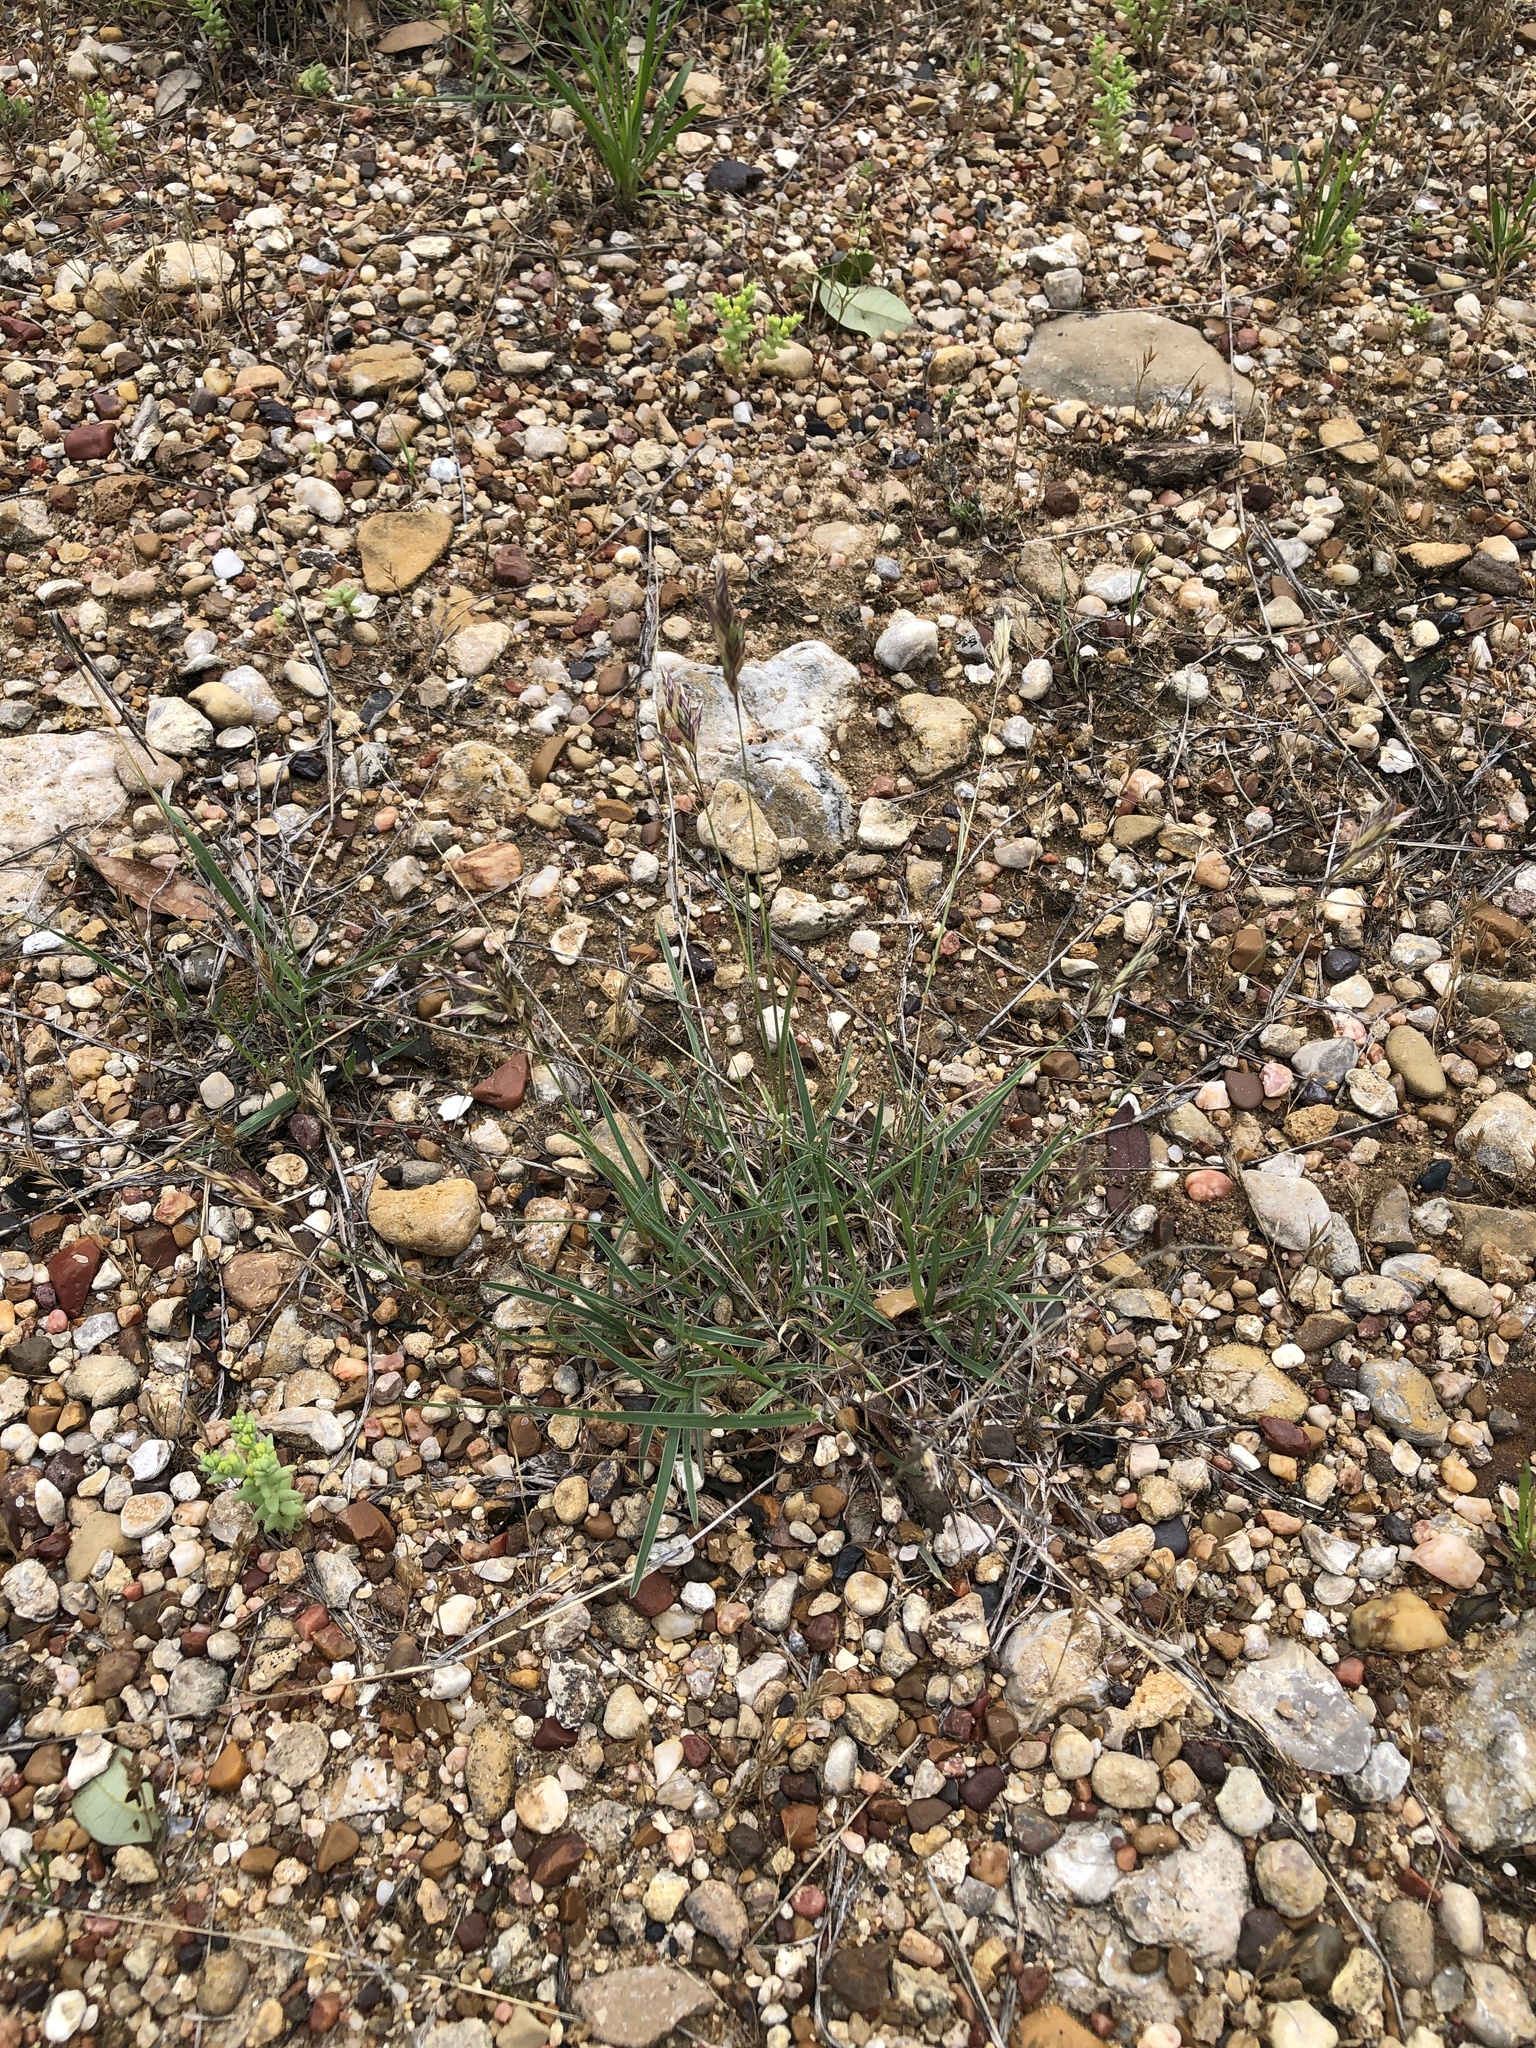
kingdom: Plantae
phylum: Tracheophyta
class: Liliopsida
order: Poales
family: Poaceae
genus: Erioneuron
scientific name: Erioneuron pilosum
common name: Hairy woolly grass
